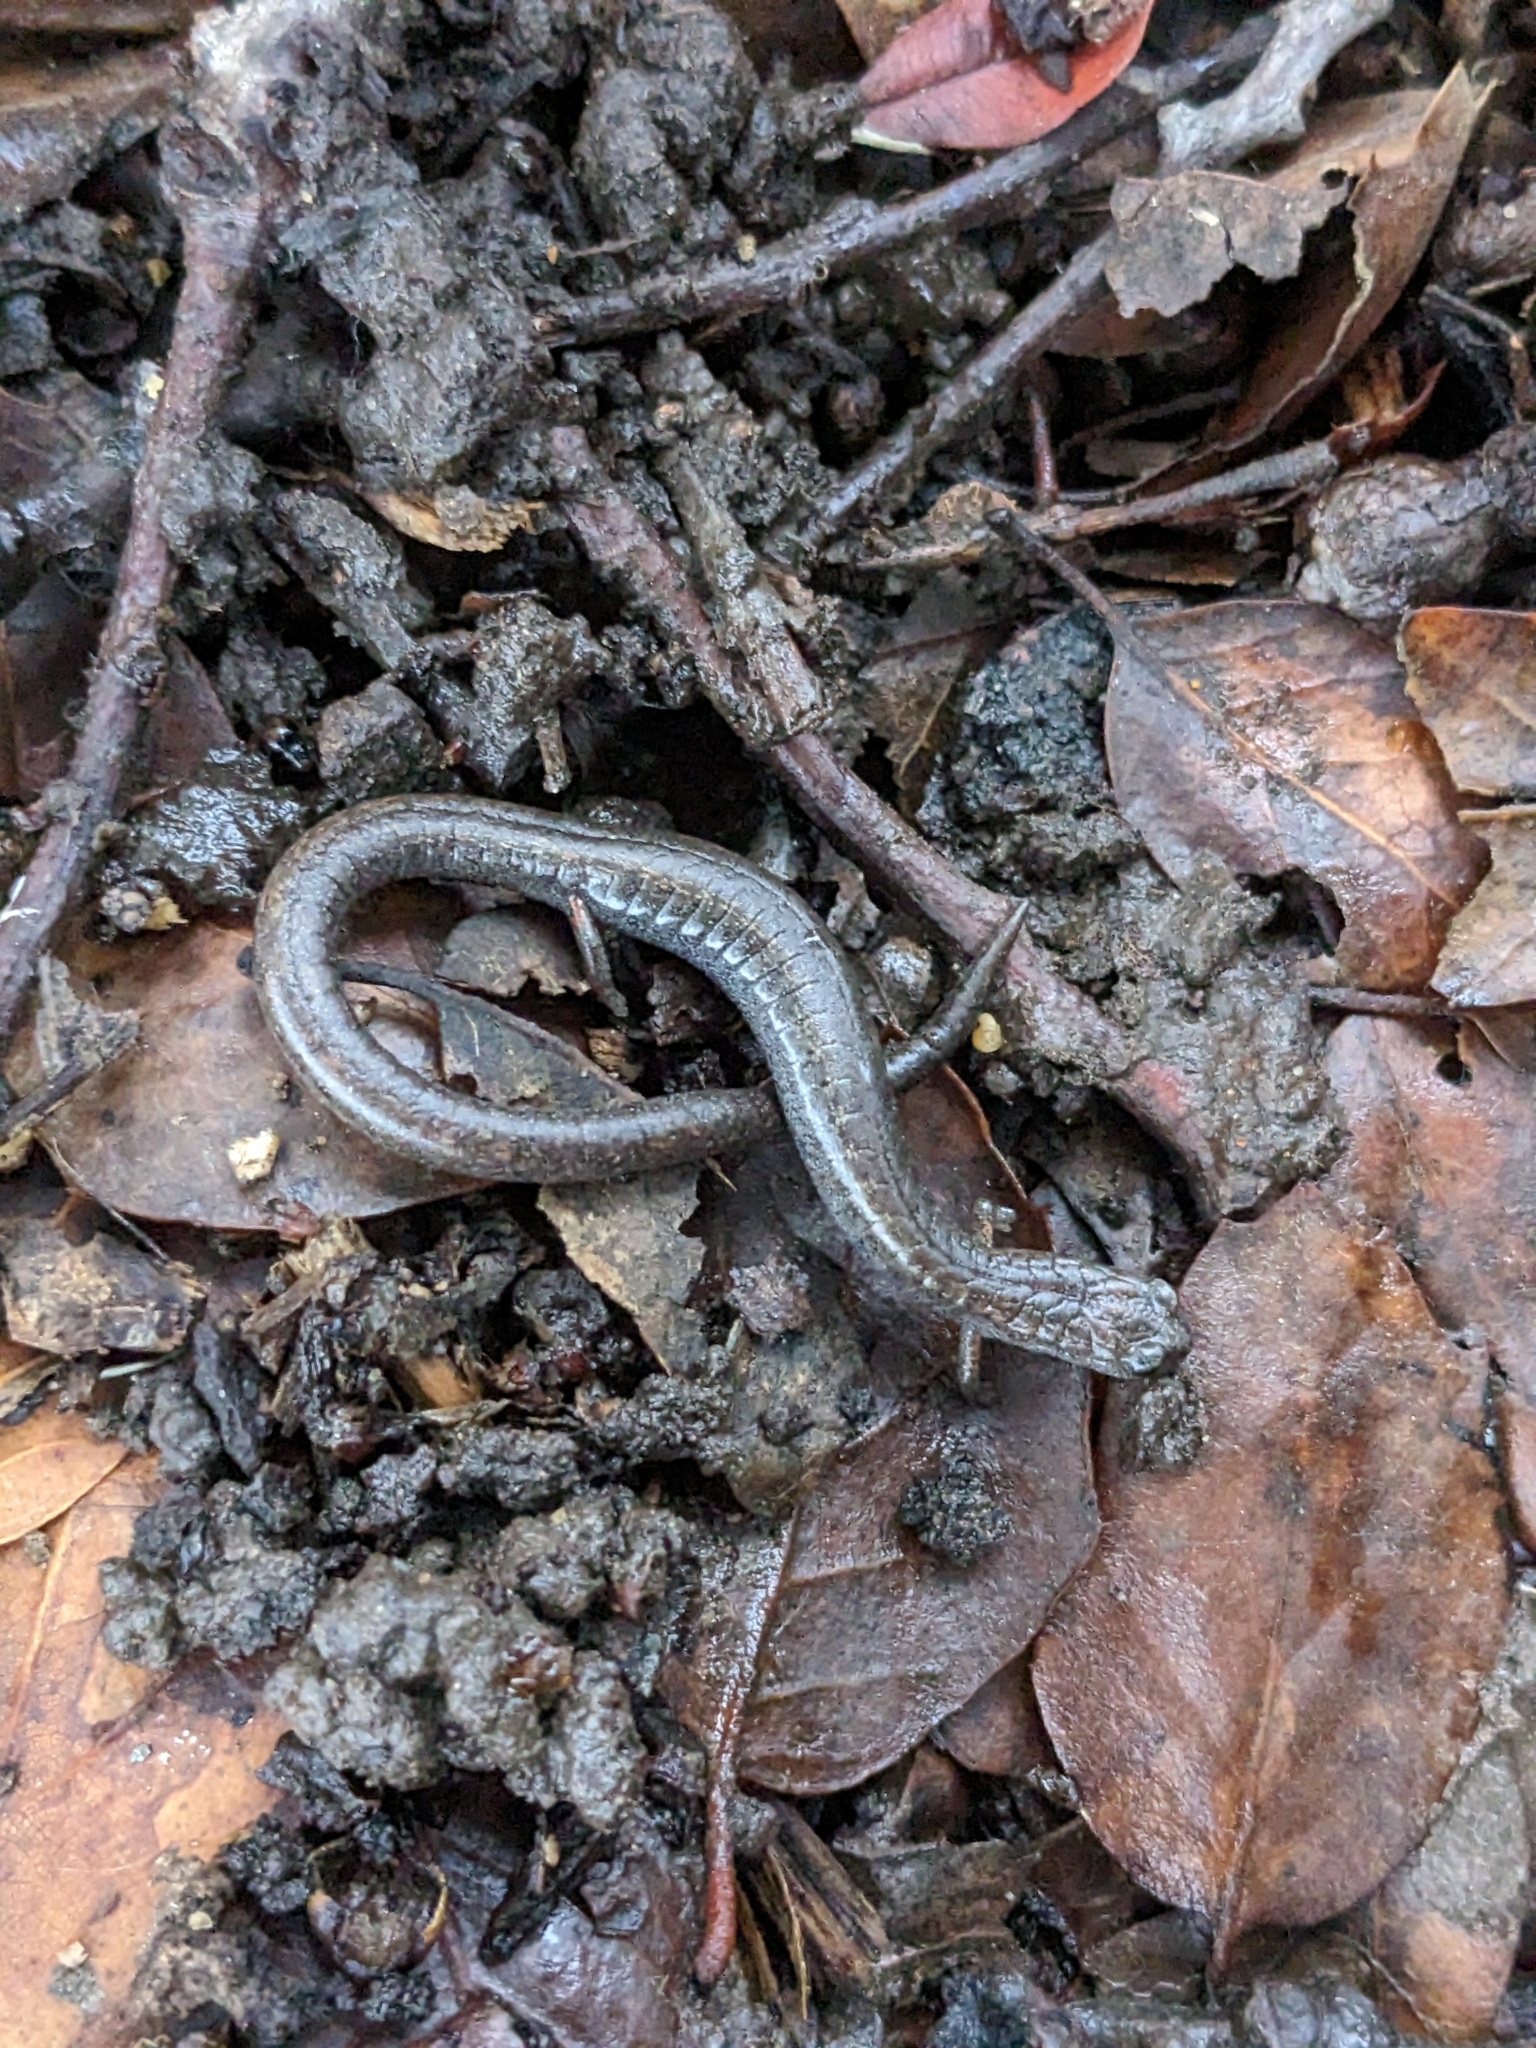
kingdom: Animalia
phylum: Chordata
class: Amphibia
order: Caudata
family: Plethodontidae
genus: Batrachoseps
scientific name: Batrachoseps attenuatus
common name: California slender salamander
